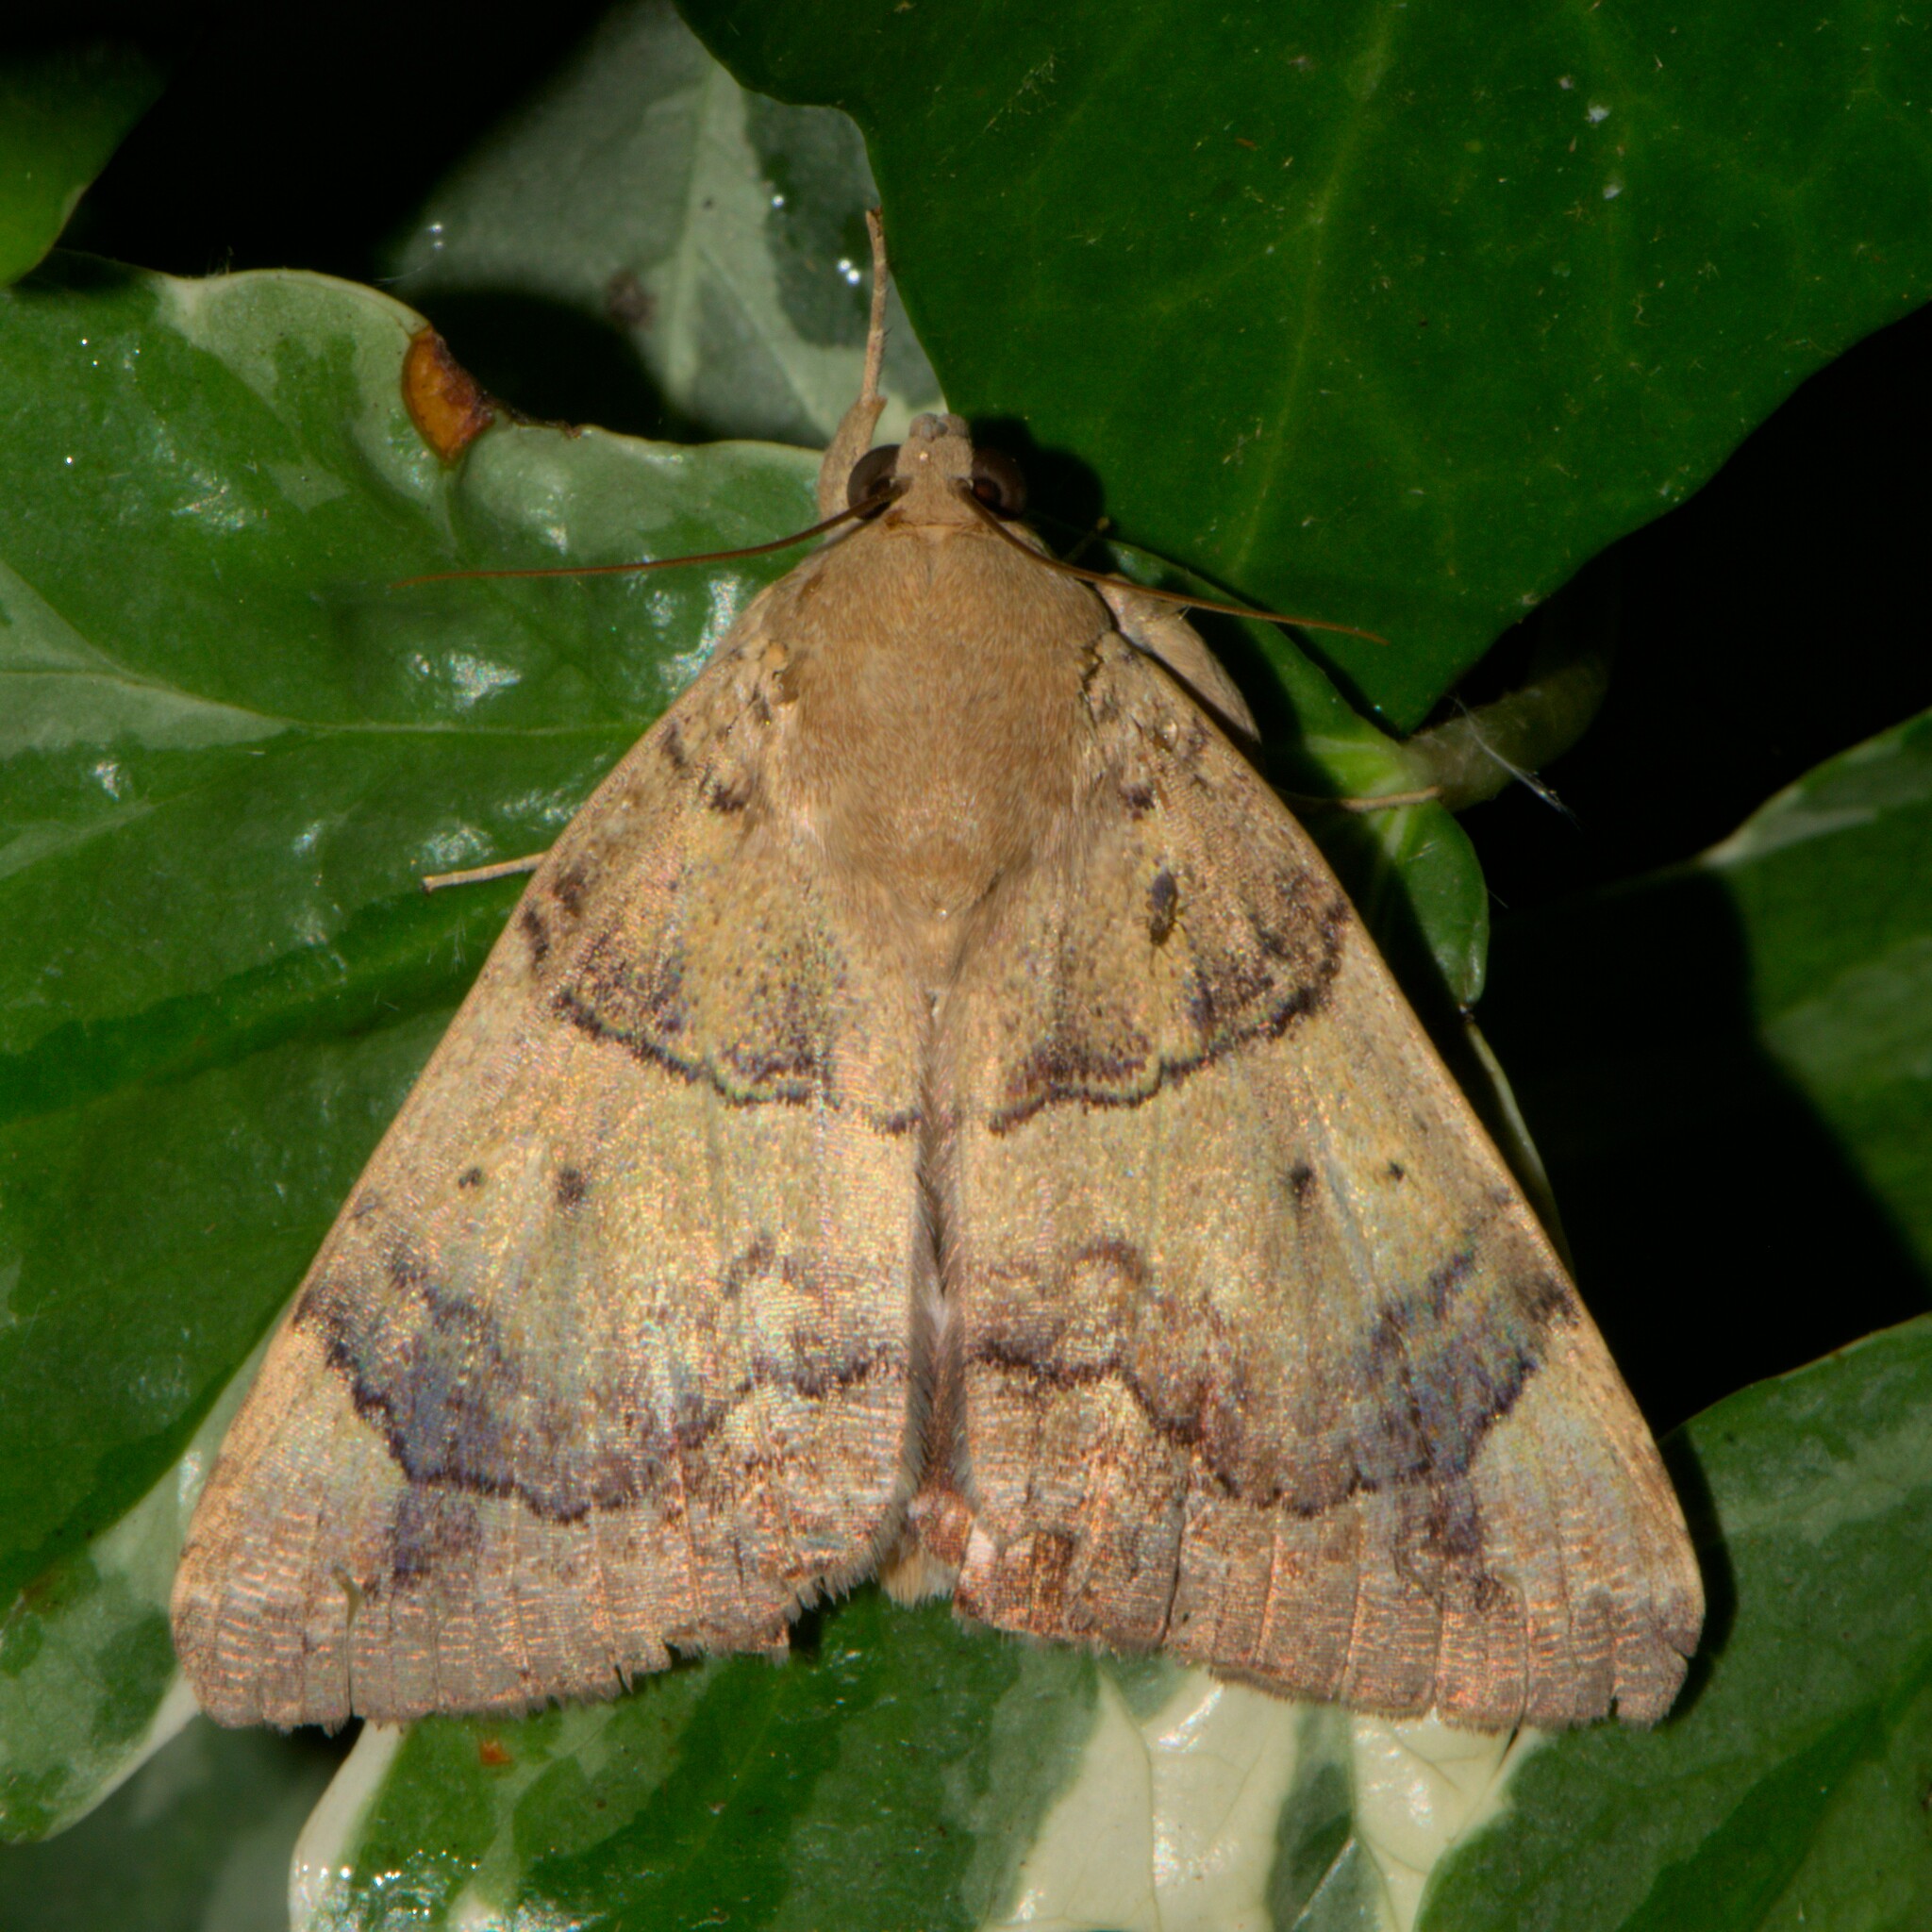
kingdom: Animalia
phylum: Arthropoda
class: Insecta
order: Lepidoptera
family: Erebidae
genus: Achaea
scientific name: Achaea janata
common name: Croton caterpillar
